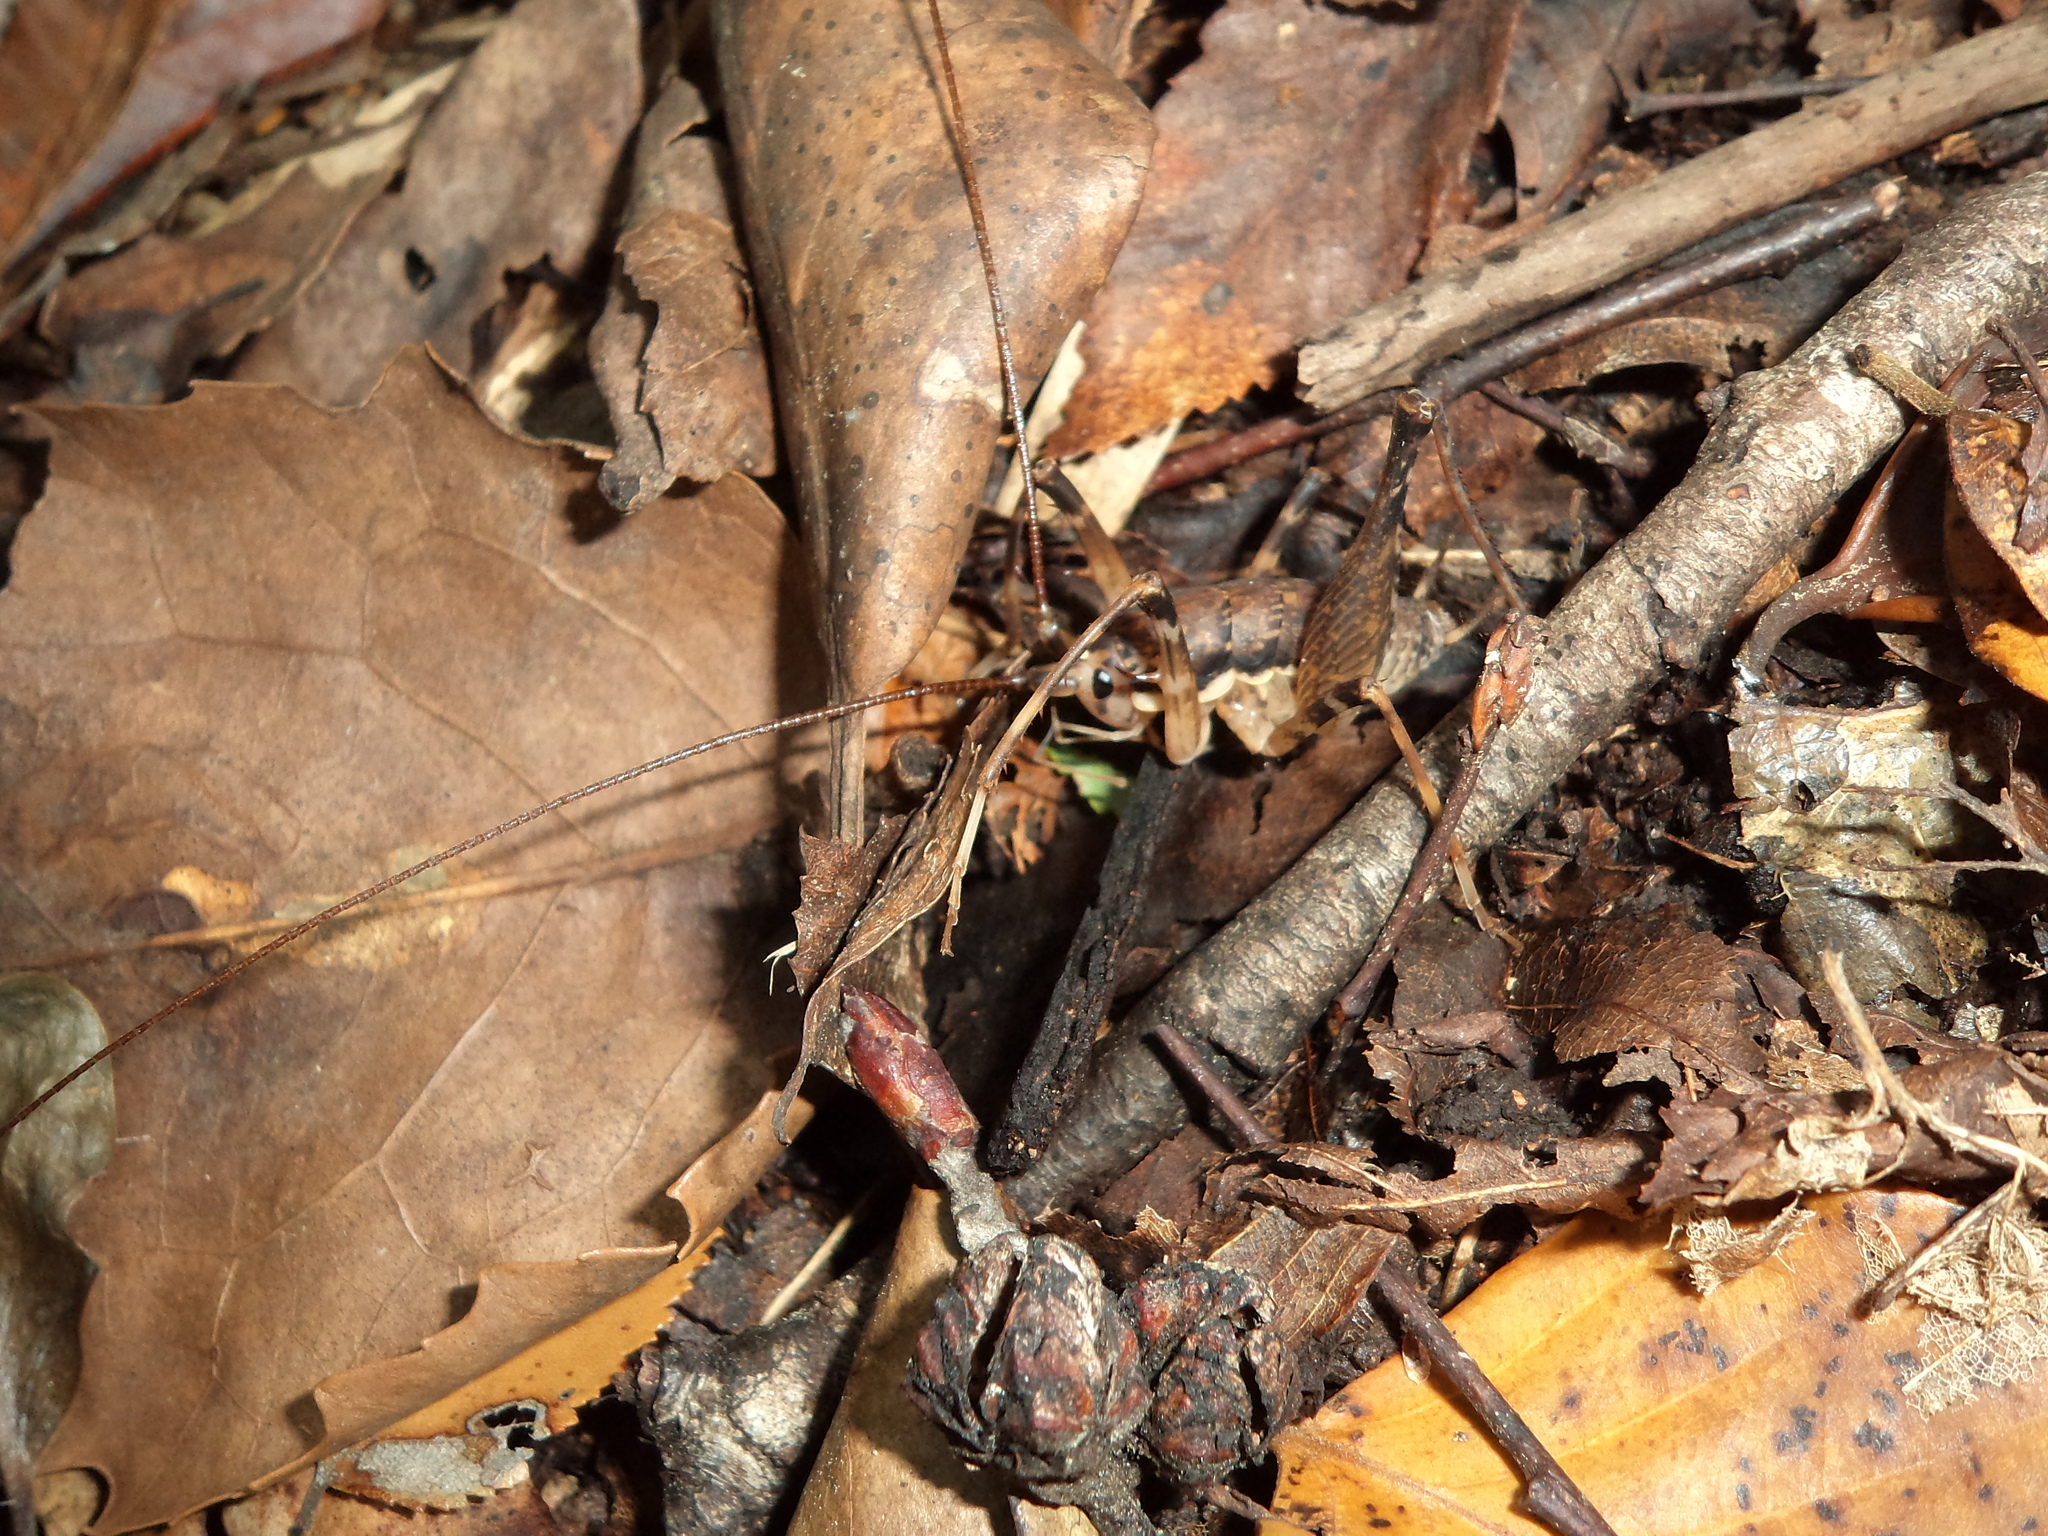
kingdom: Animalia
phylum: Arthropoda
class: Insecta
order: Orthoptera
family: Rhaphidophoridae
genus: Heteromallus
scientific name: Heteromallus spina
